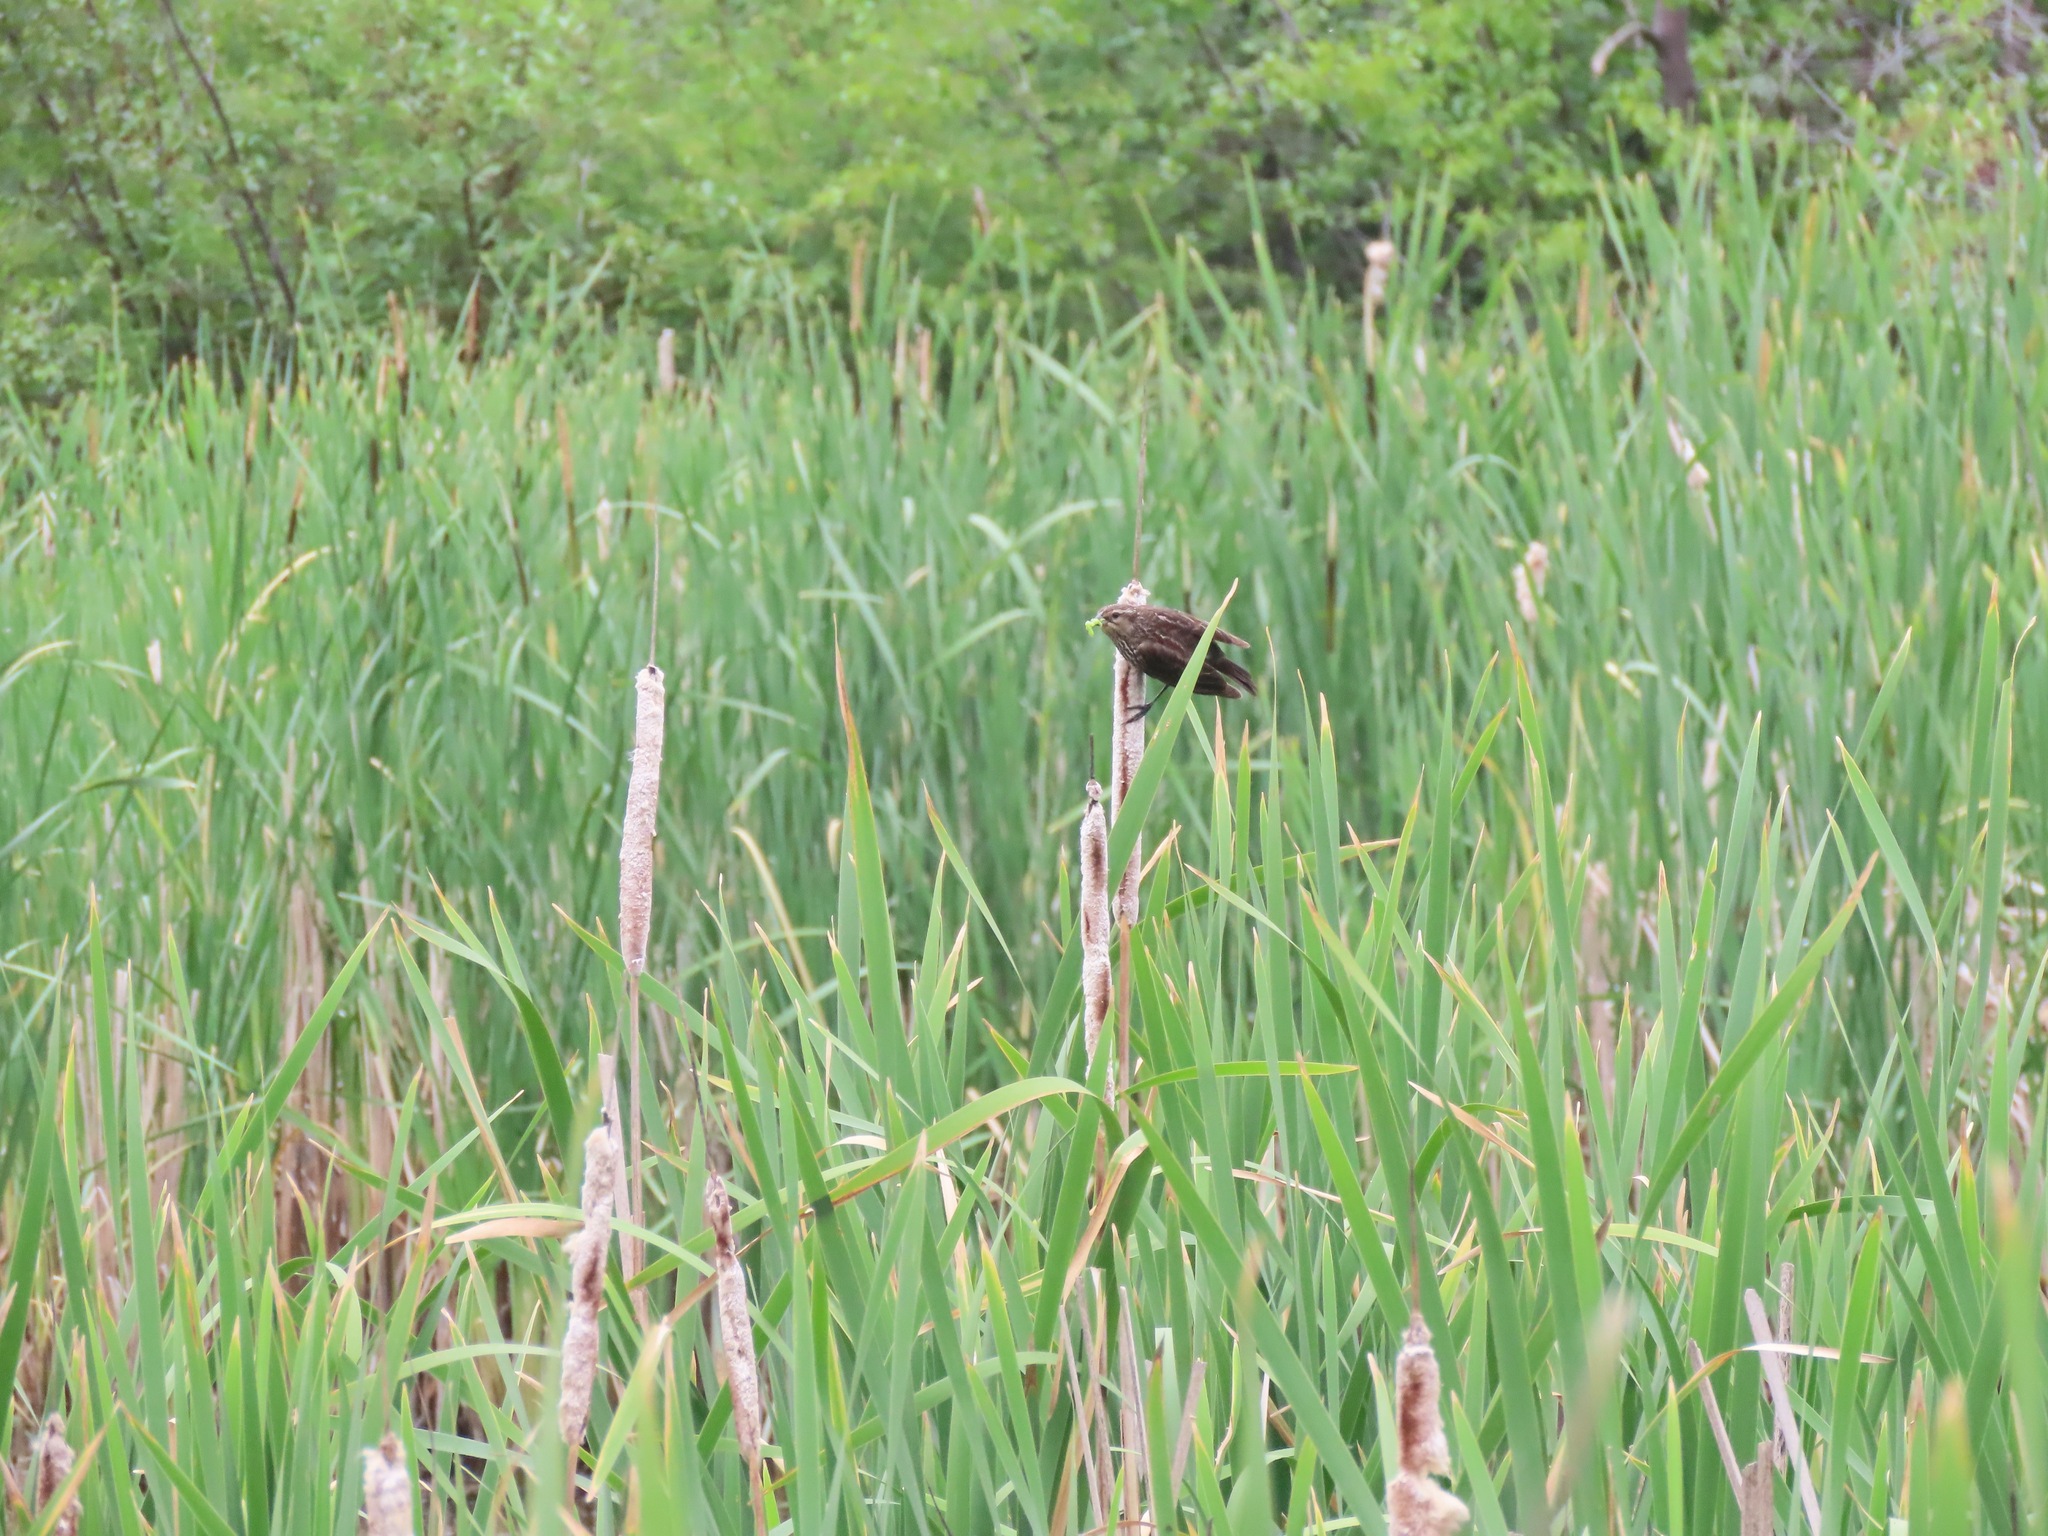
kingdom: Animalia
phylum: Chordata
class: Aves
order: Passeriformes
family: Icteridae
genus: Agelaius
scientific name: Agelaius phoeniceus
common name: Red-winged blackbird
